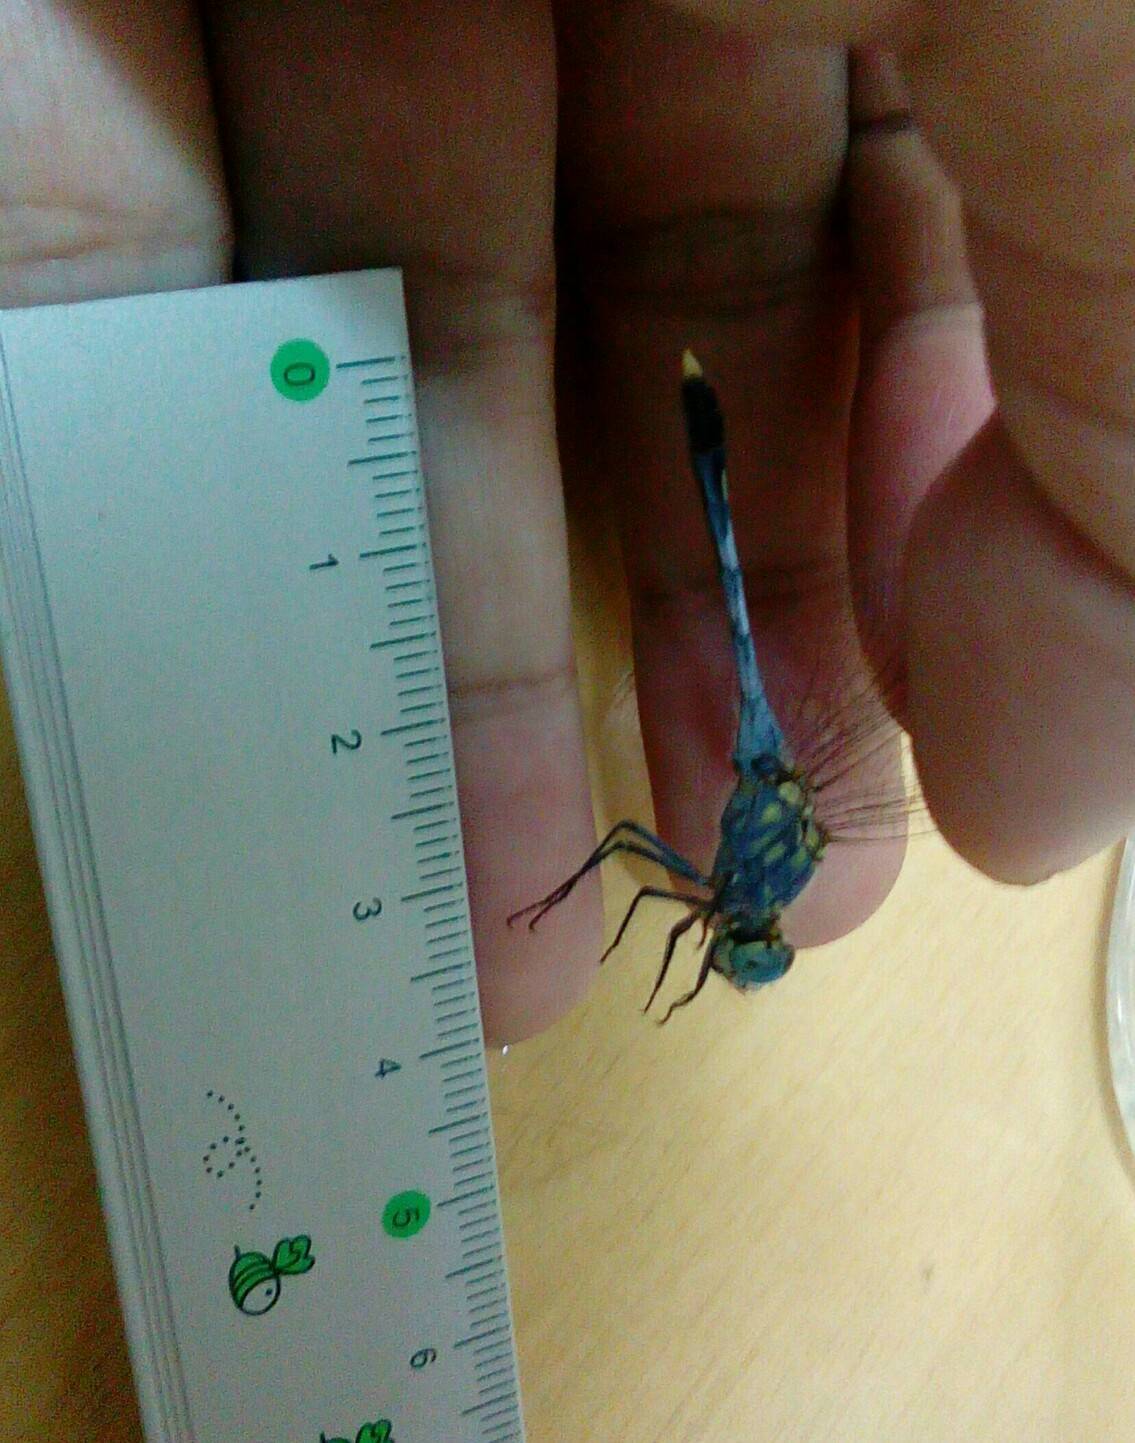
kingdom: Animalia
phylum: Arthropoda
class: Insecta
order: Odonata
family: Libellulidae
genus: Diplacodes
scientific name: Diplacodes trivialis
